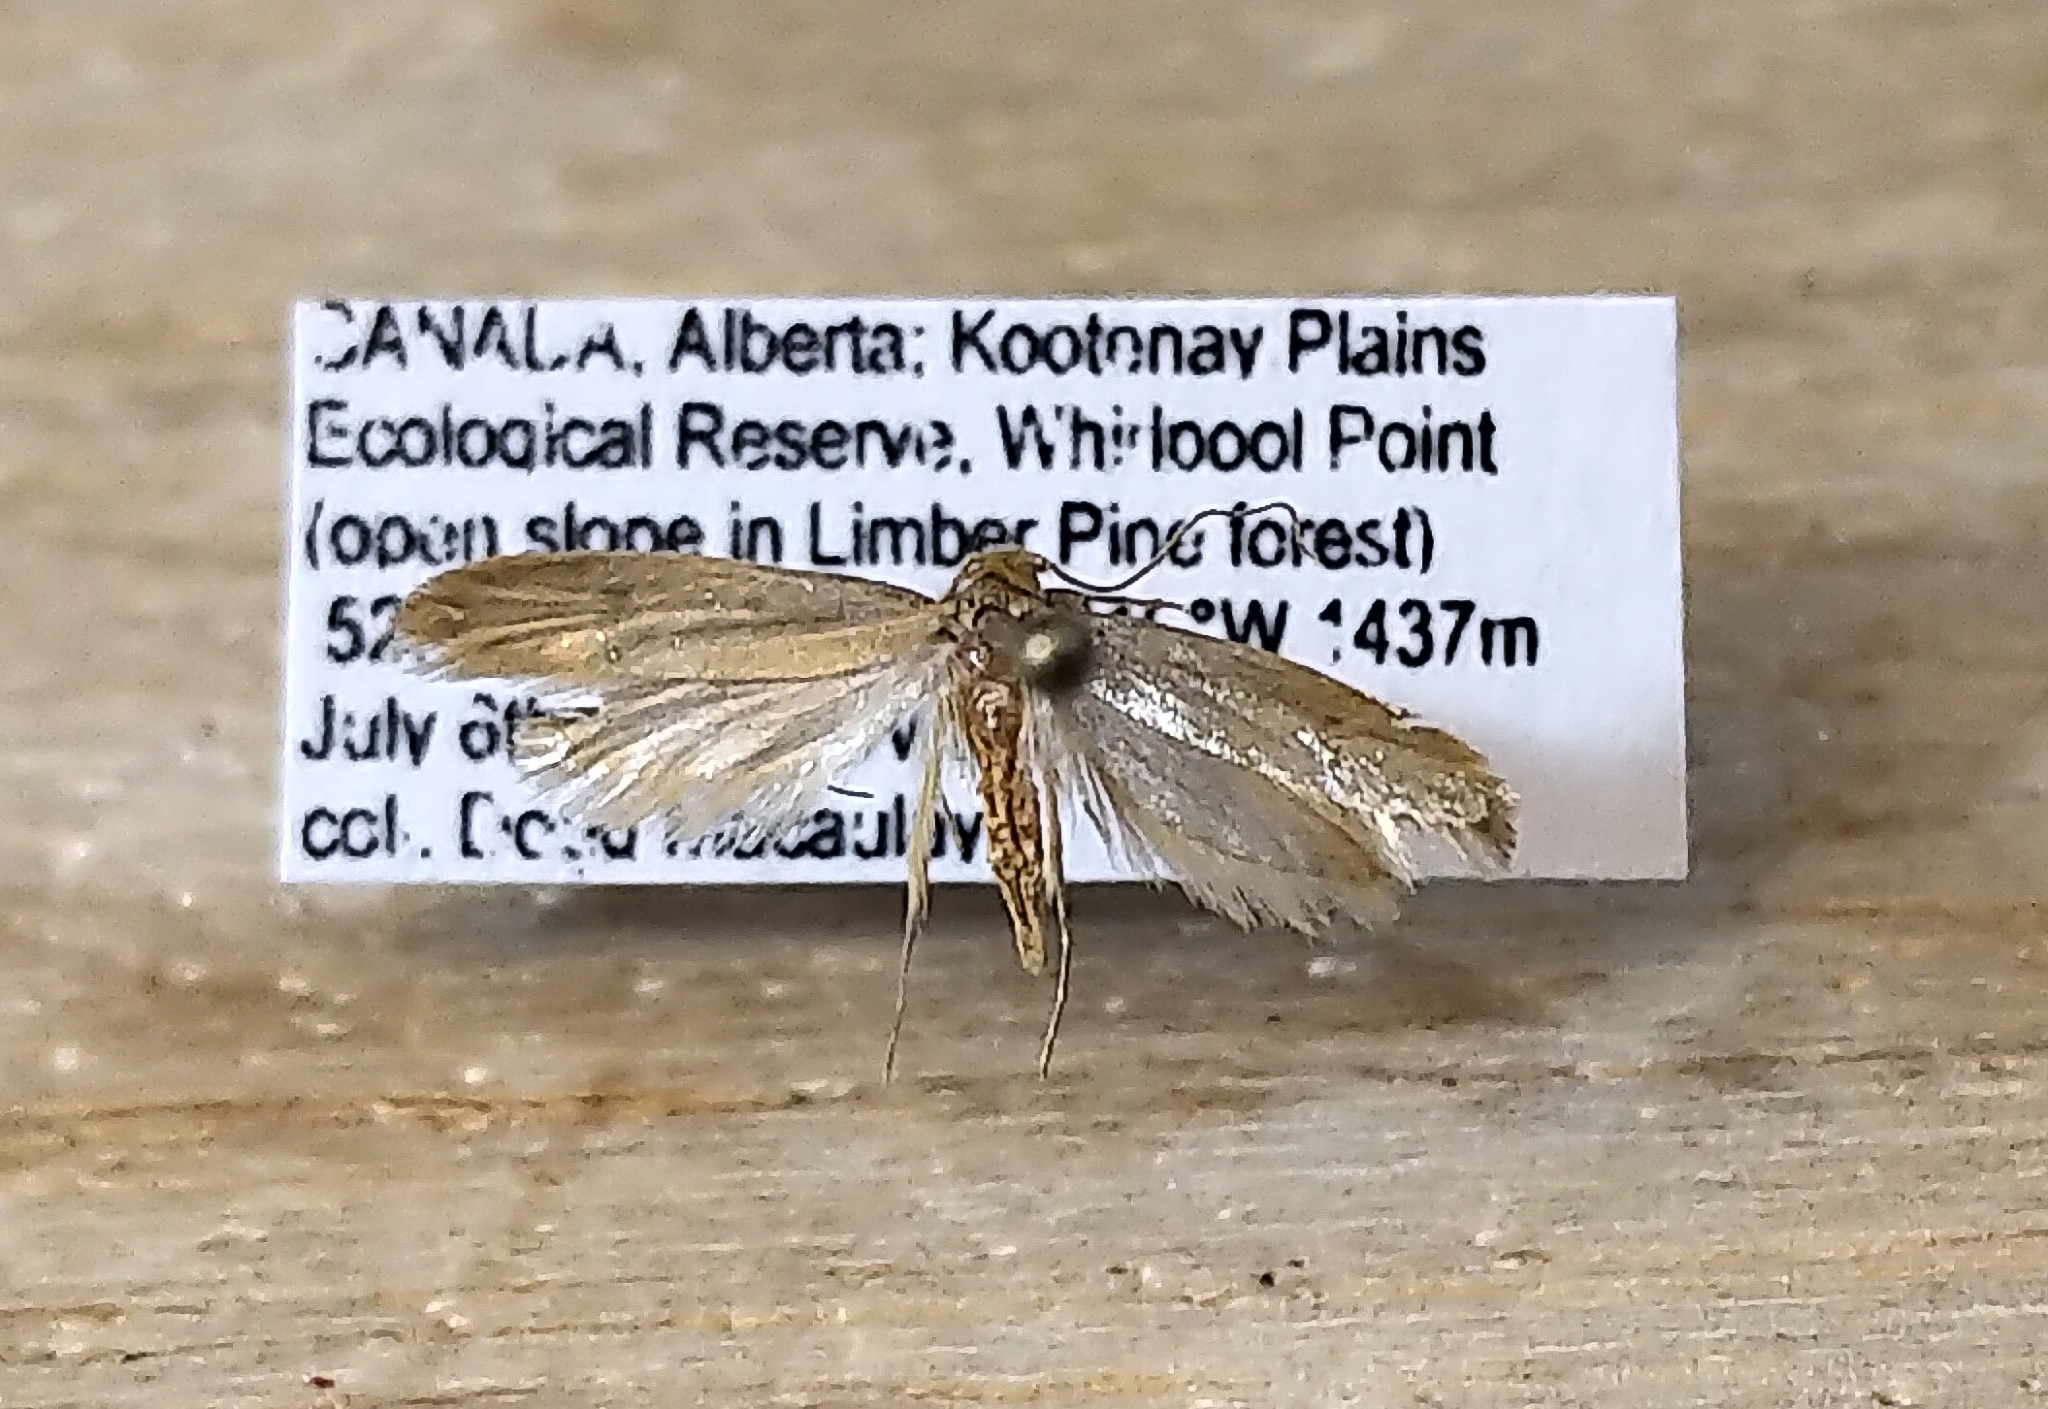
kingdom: Animalia
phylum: Arthropoda
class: Insecta
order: Lepidoptera
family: Tineidae
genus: Tinea
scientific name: Tinea irrepta
